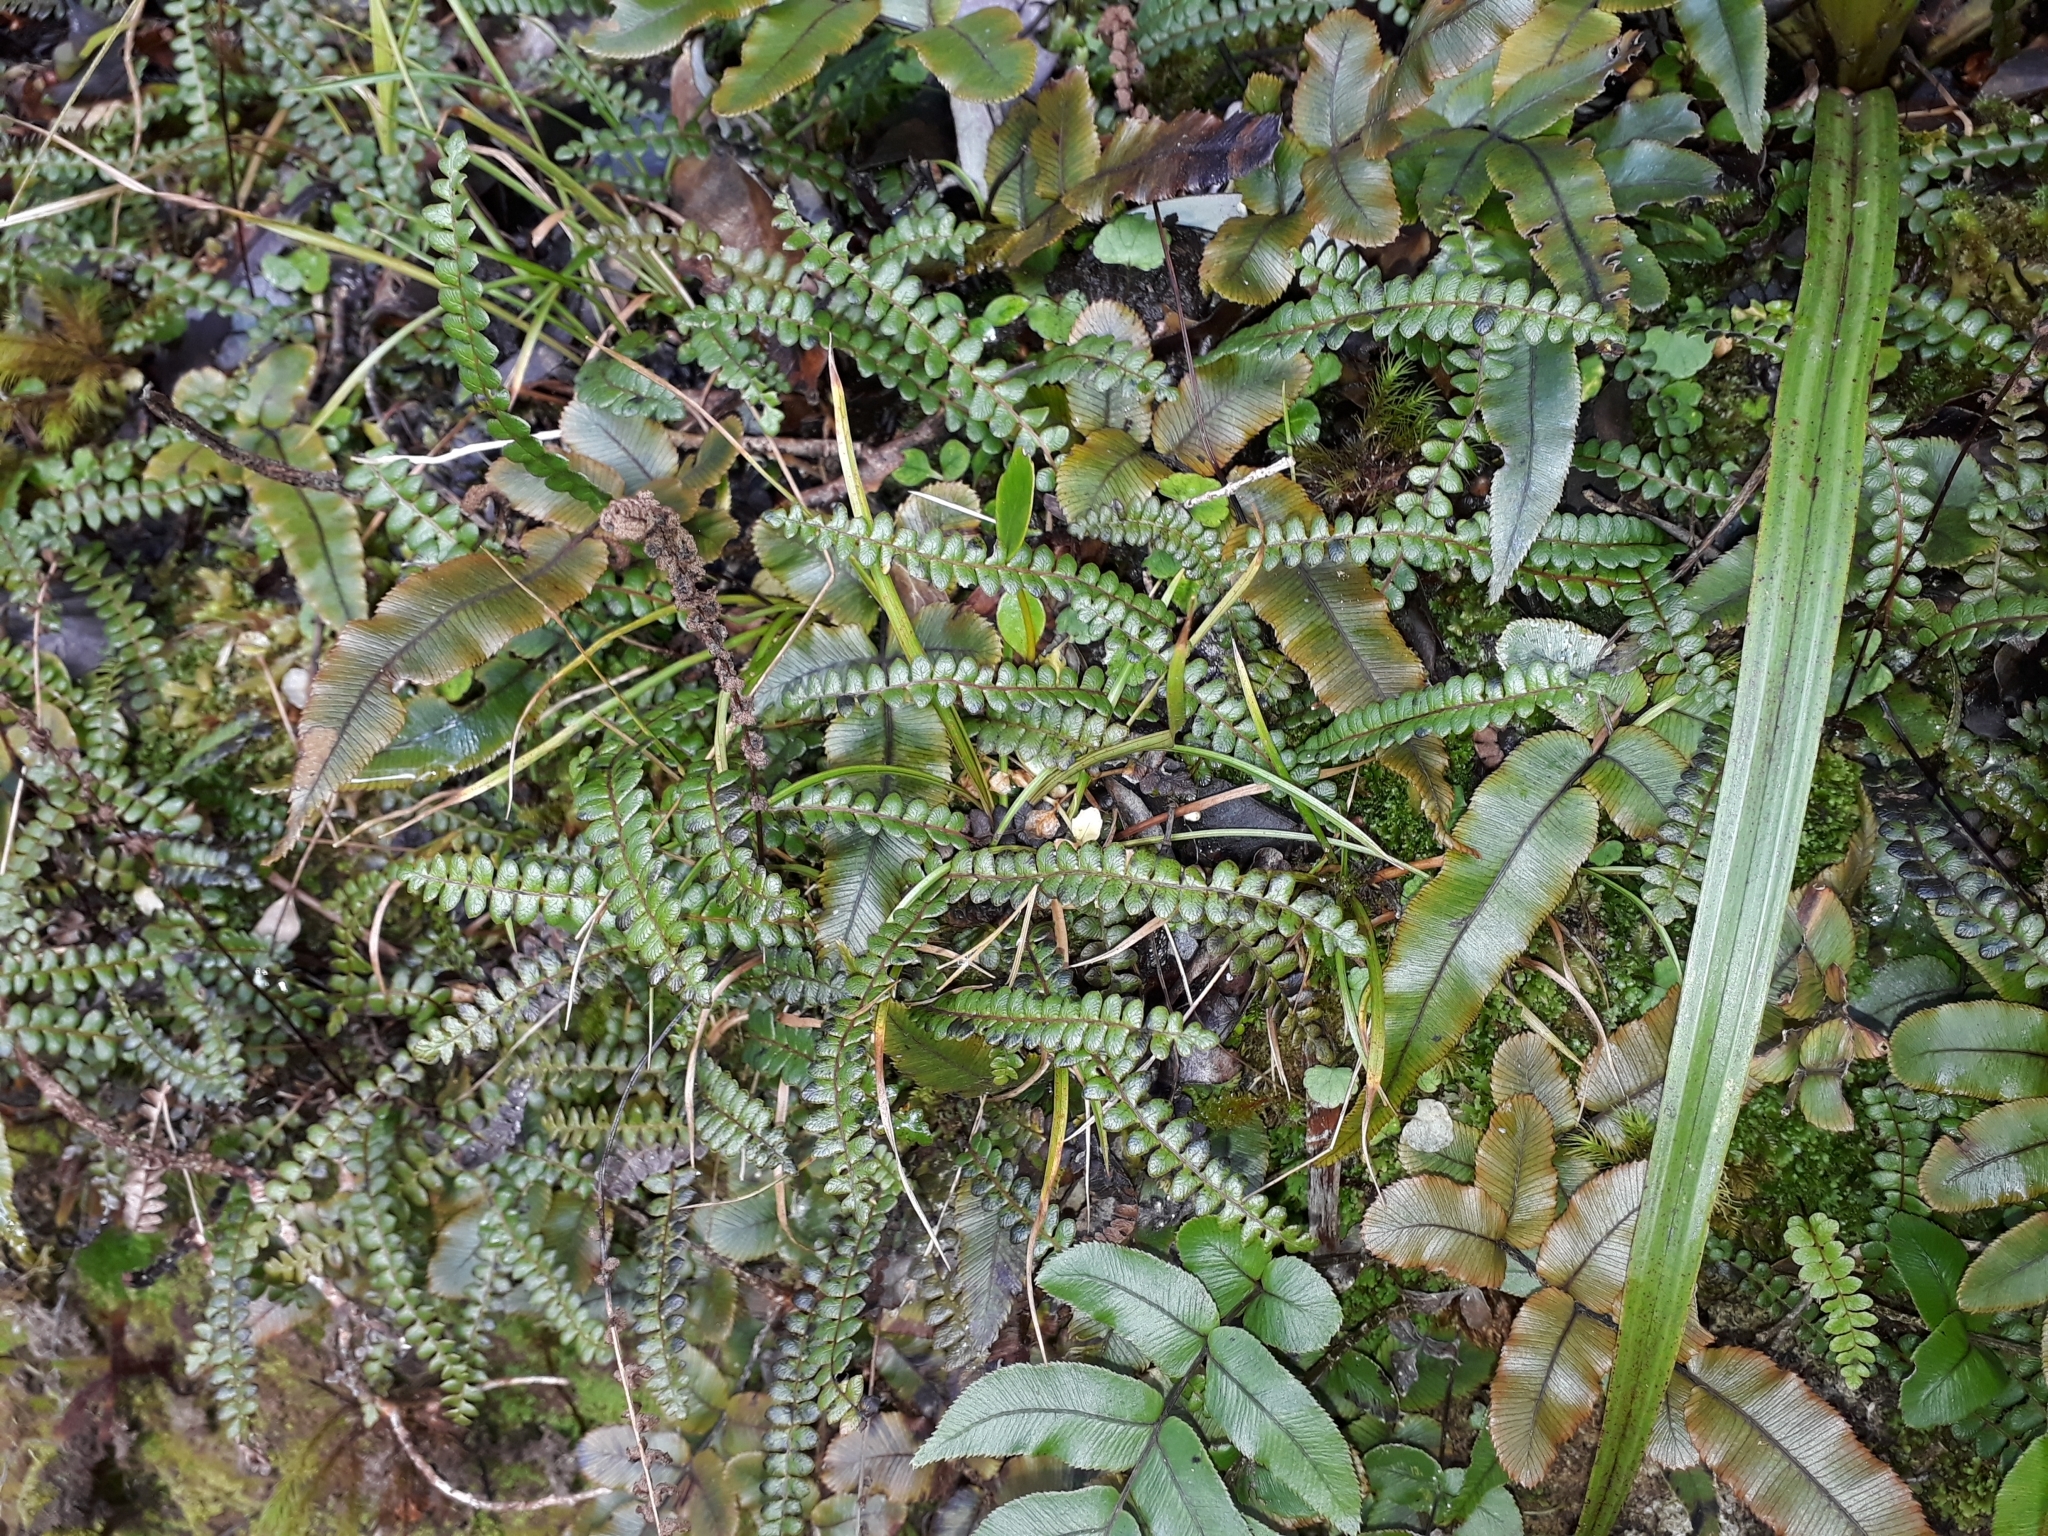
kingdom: Plantae
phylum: Tracheophyta
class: Polypodiopsida
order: Polypodiales
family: Blechnaceae
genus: Austroblechnum
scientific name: Austroblechnum penna-marina
